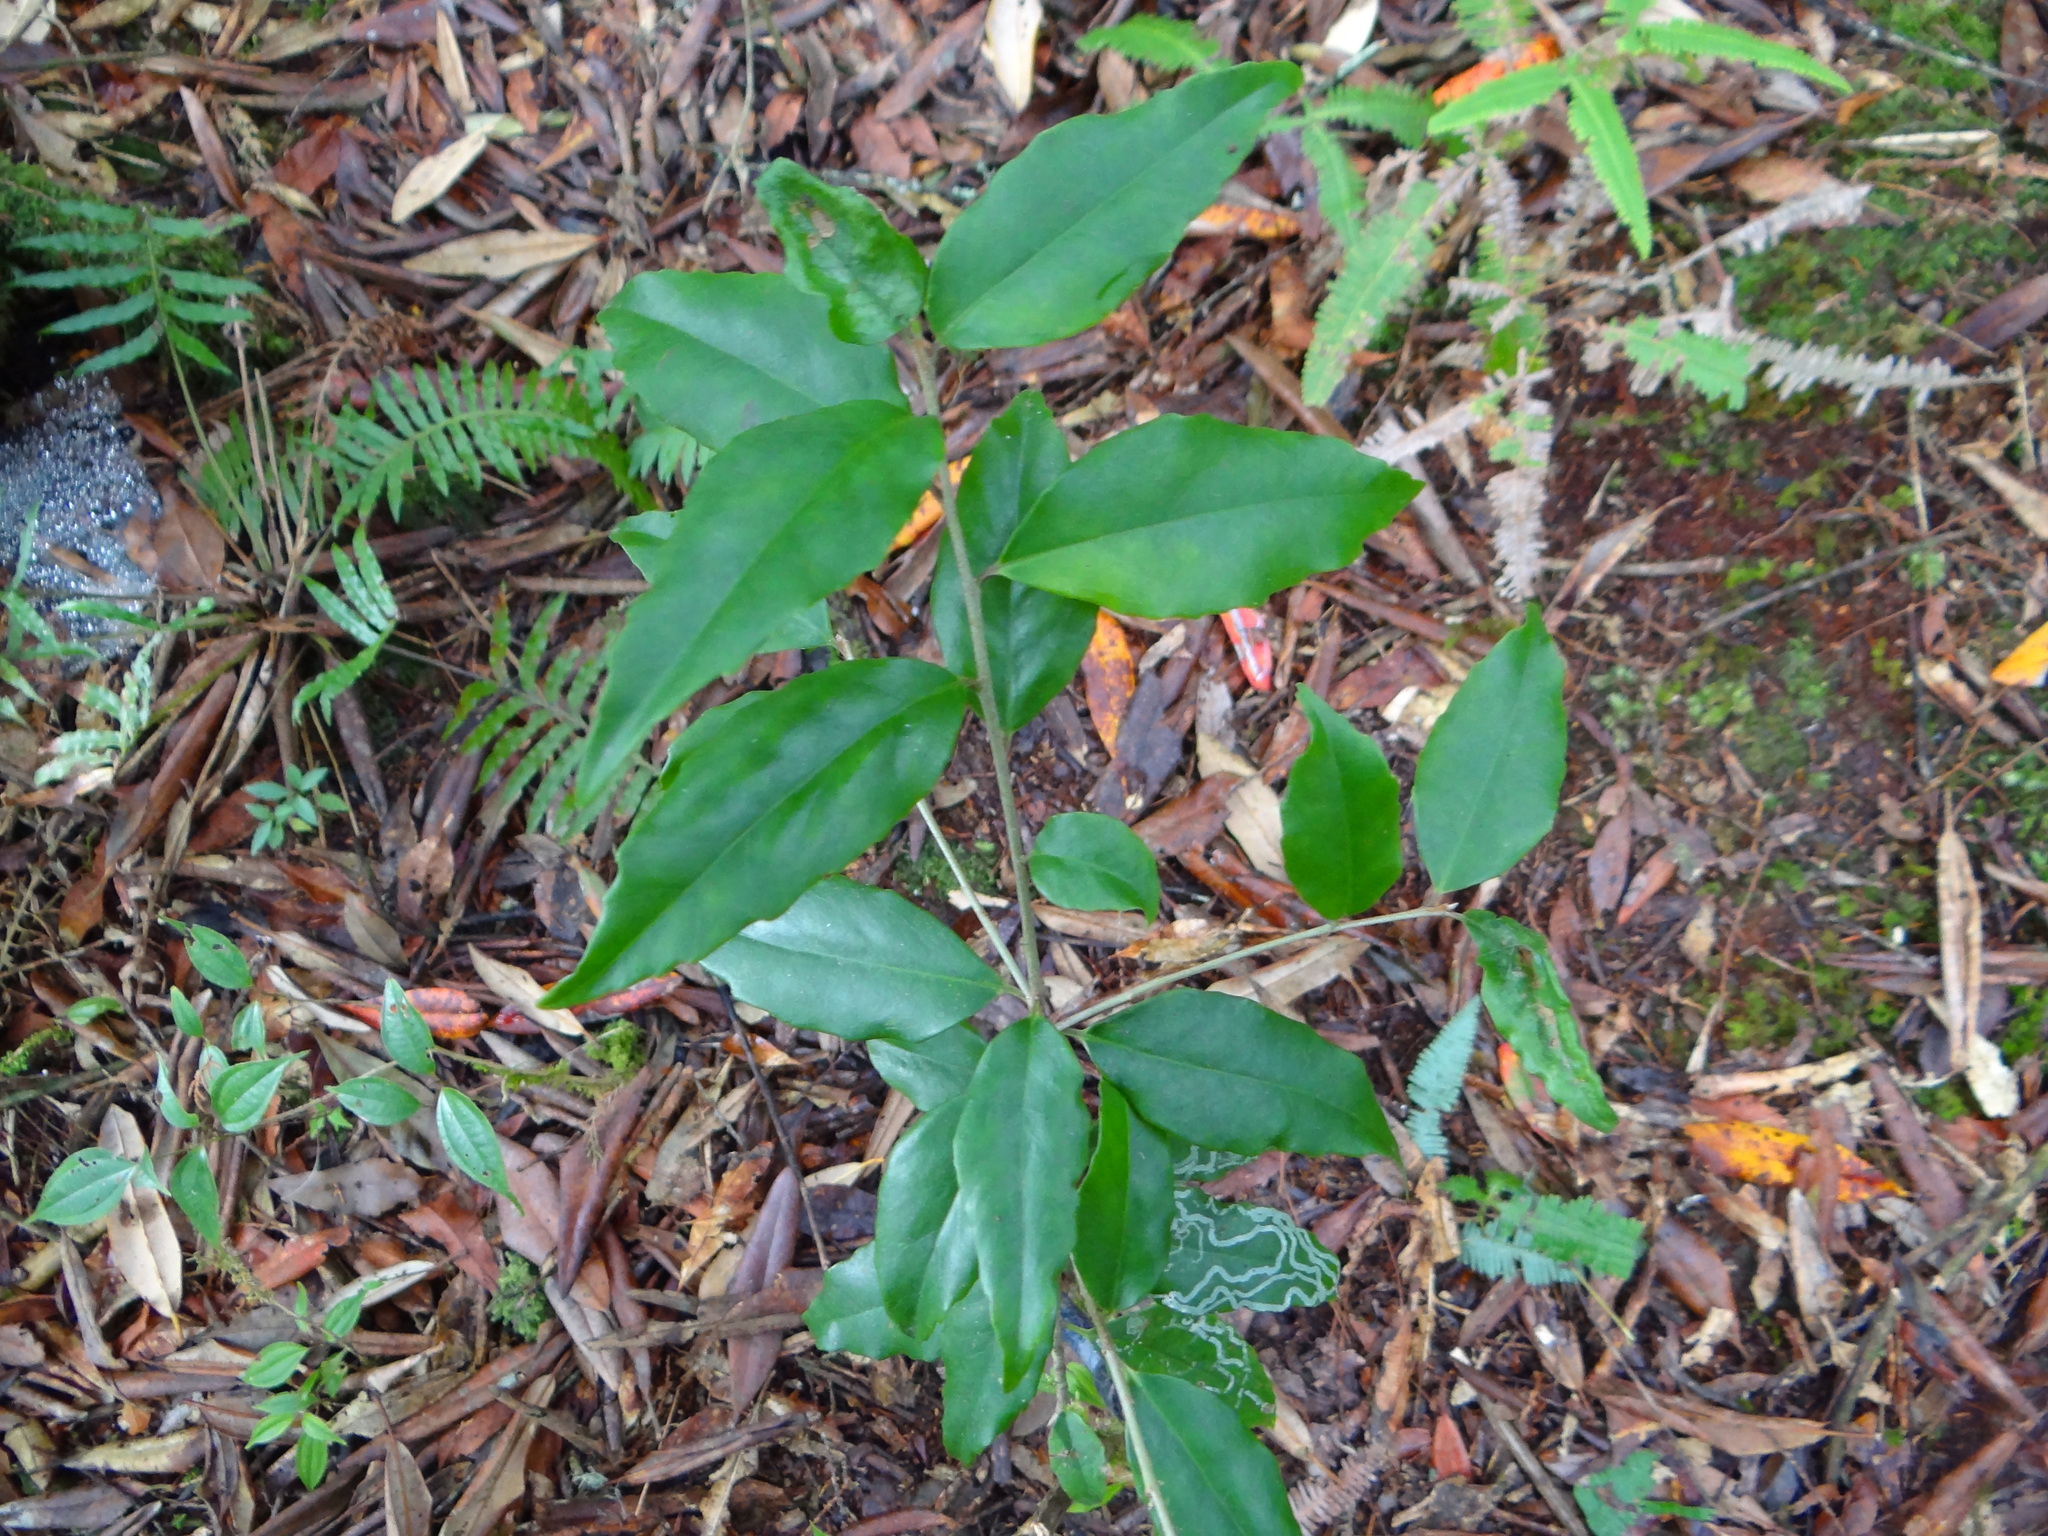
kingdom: Plantae
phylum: Tracheophyta
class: Magnoliopsida
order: Ericales
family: Symplocaceae
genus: Symplocos
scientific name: Symplocos sonoharae
